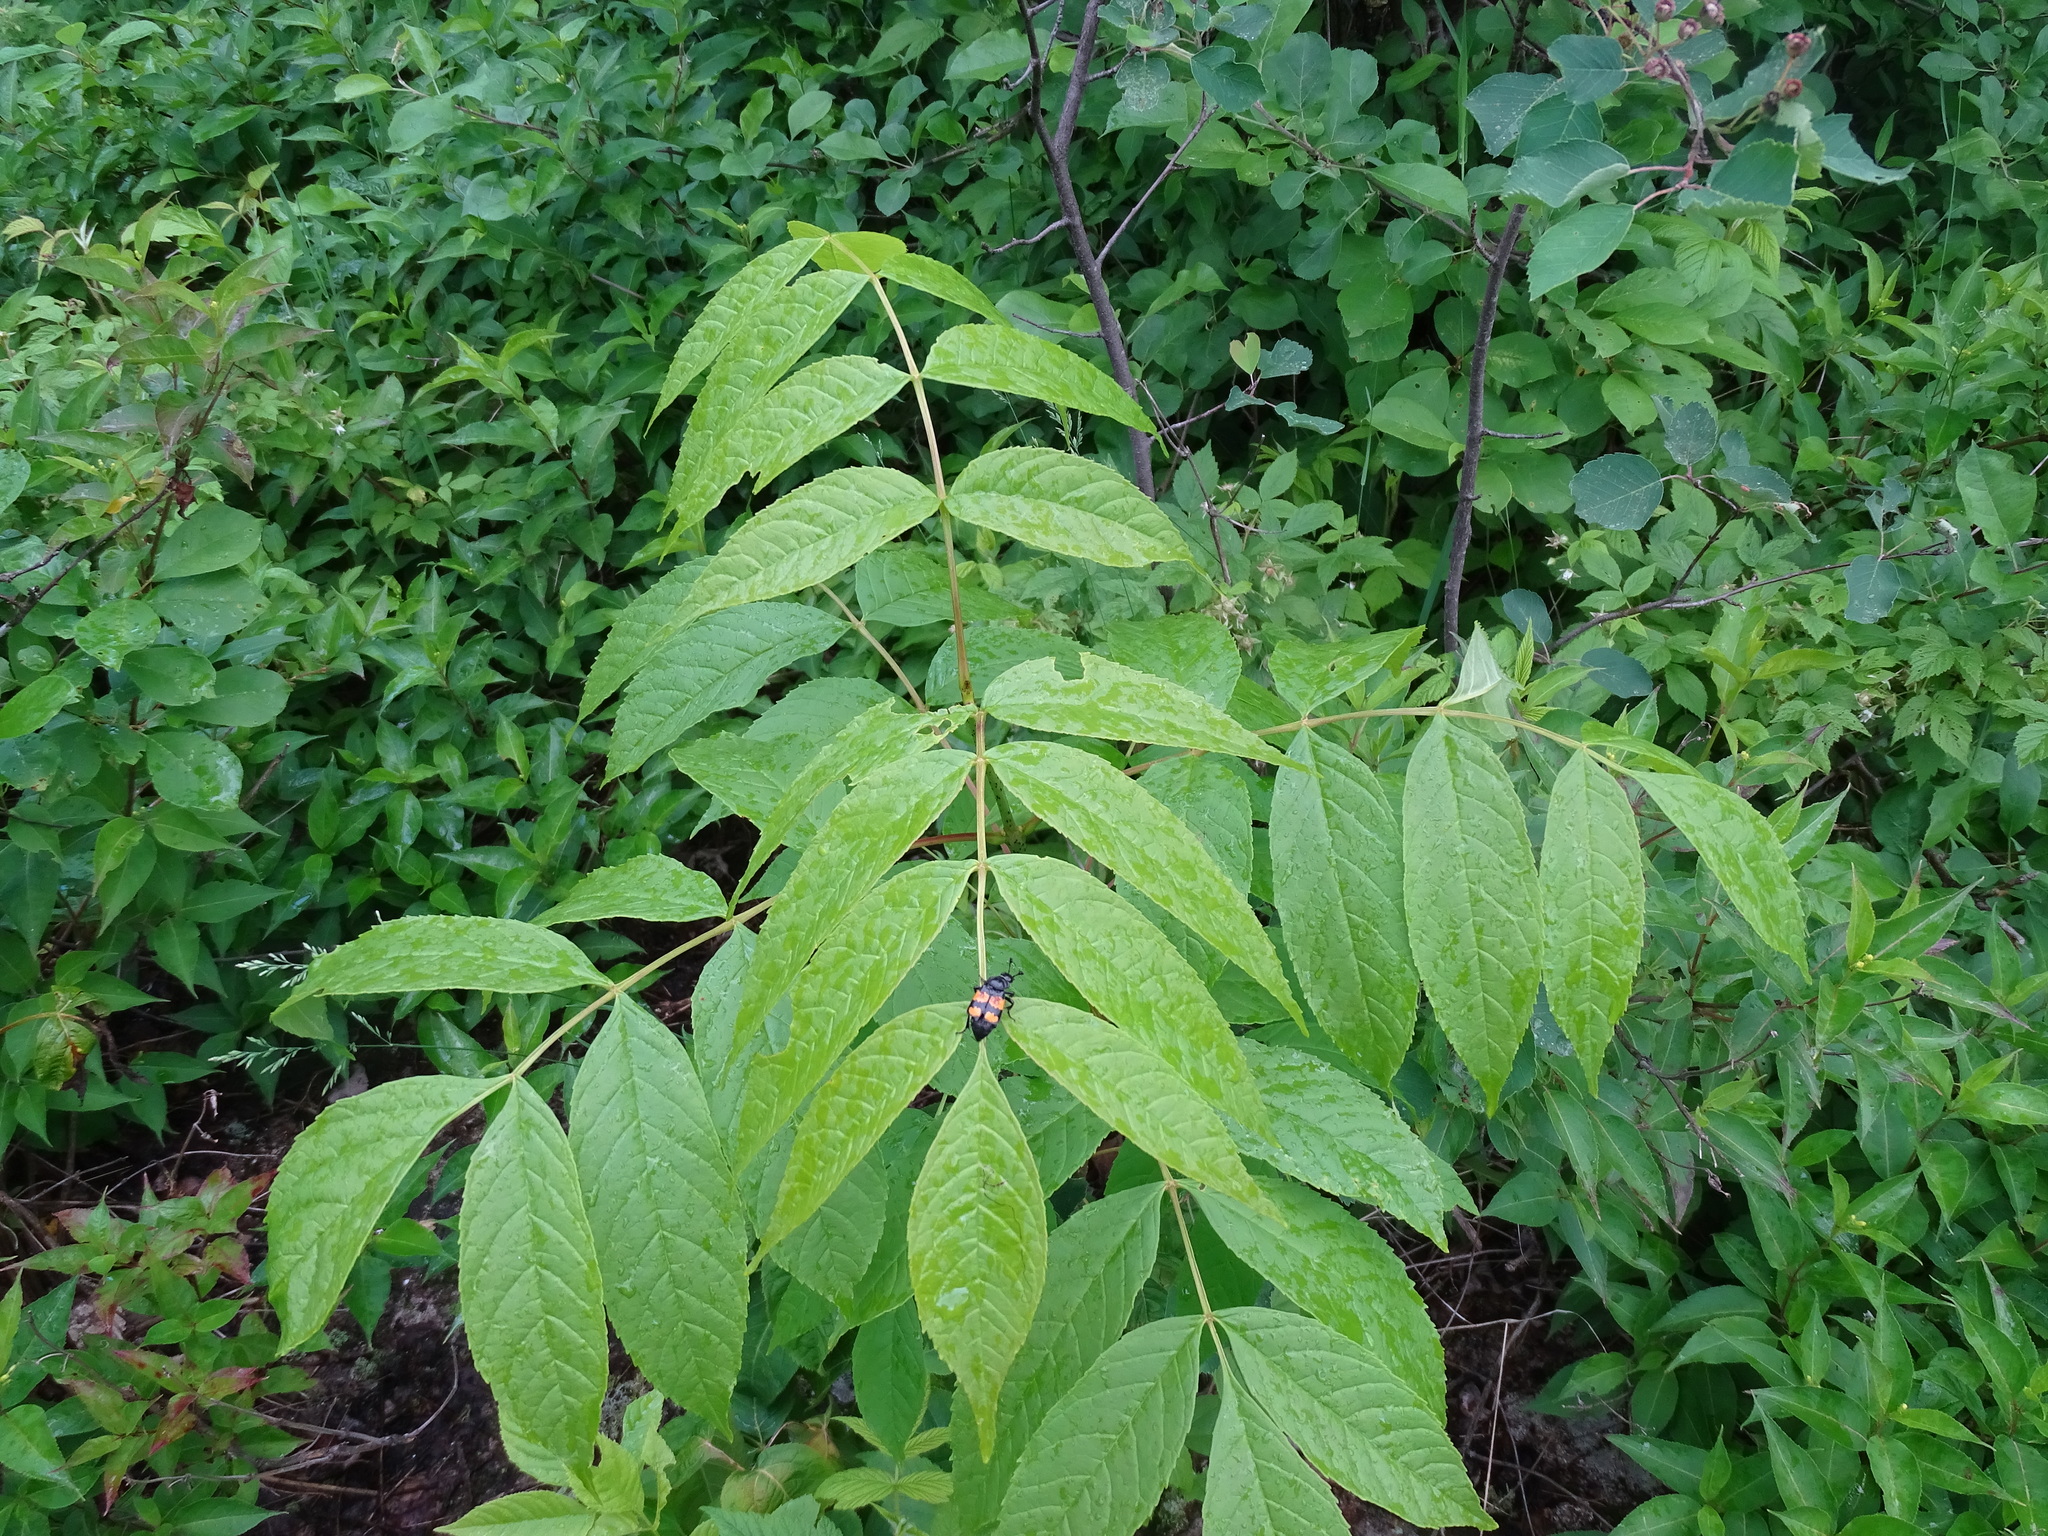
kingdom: Plantae
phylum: Tracheophyta
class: Magnoliopsida
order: Lamiales
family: Oleaceae
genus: Fraxinus
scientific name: Fraxinus nigra
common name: Black ash
